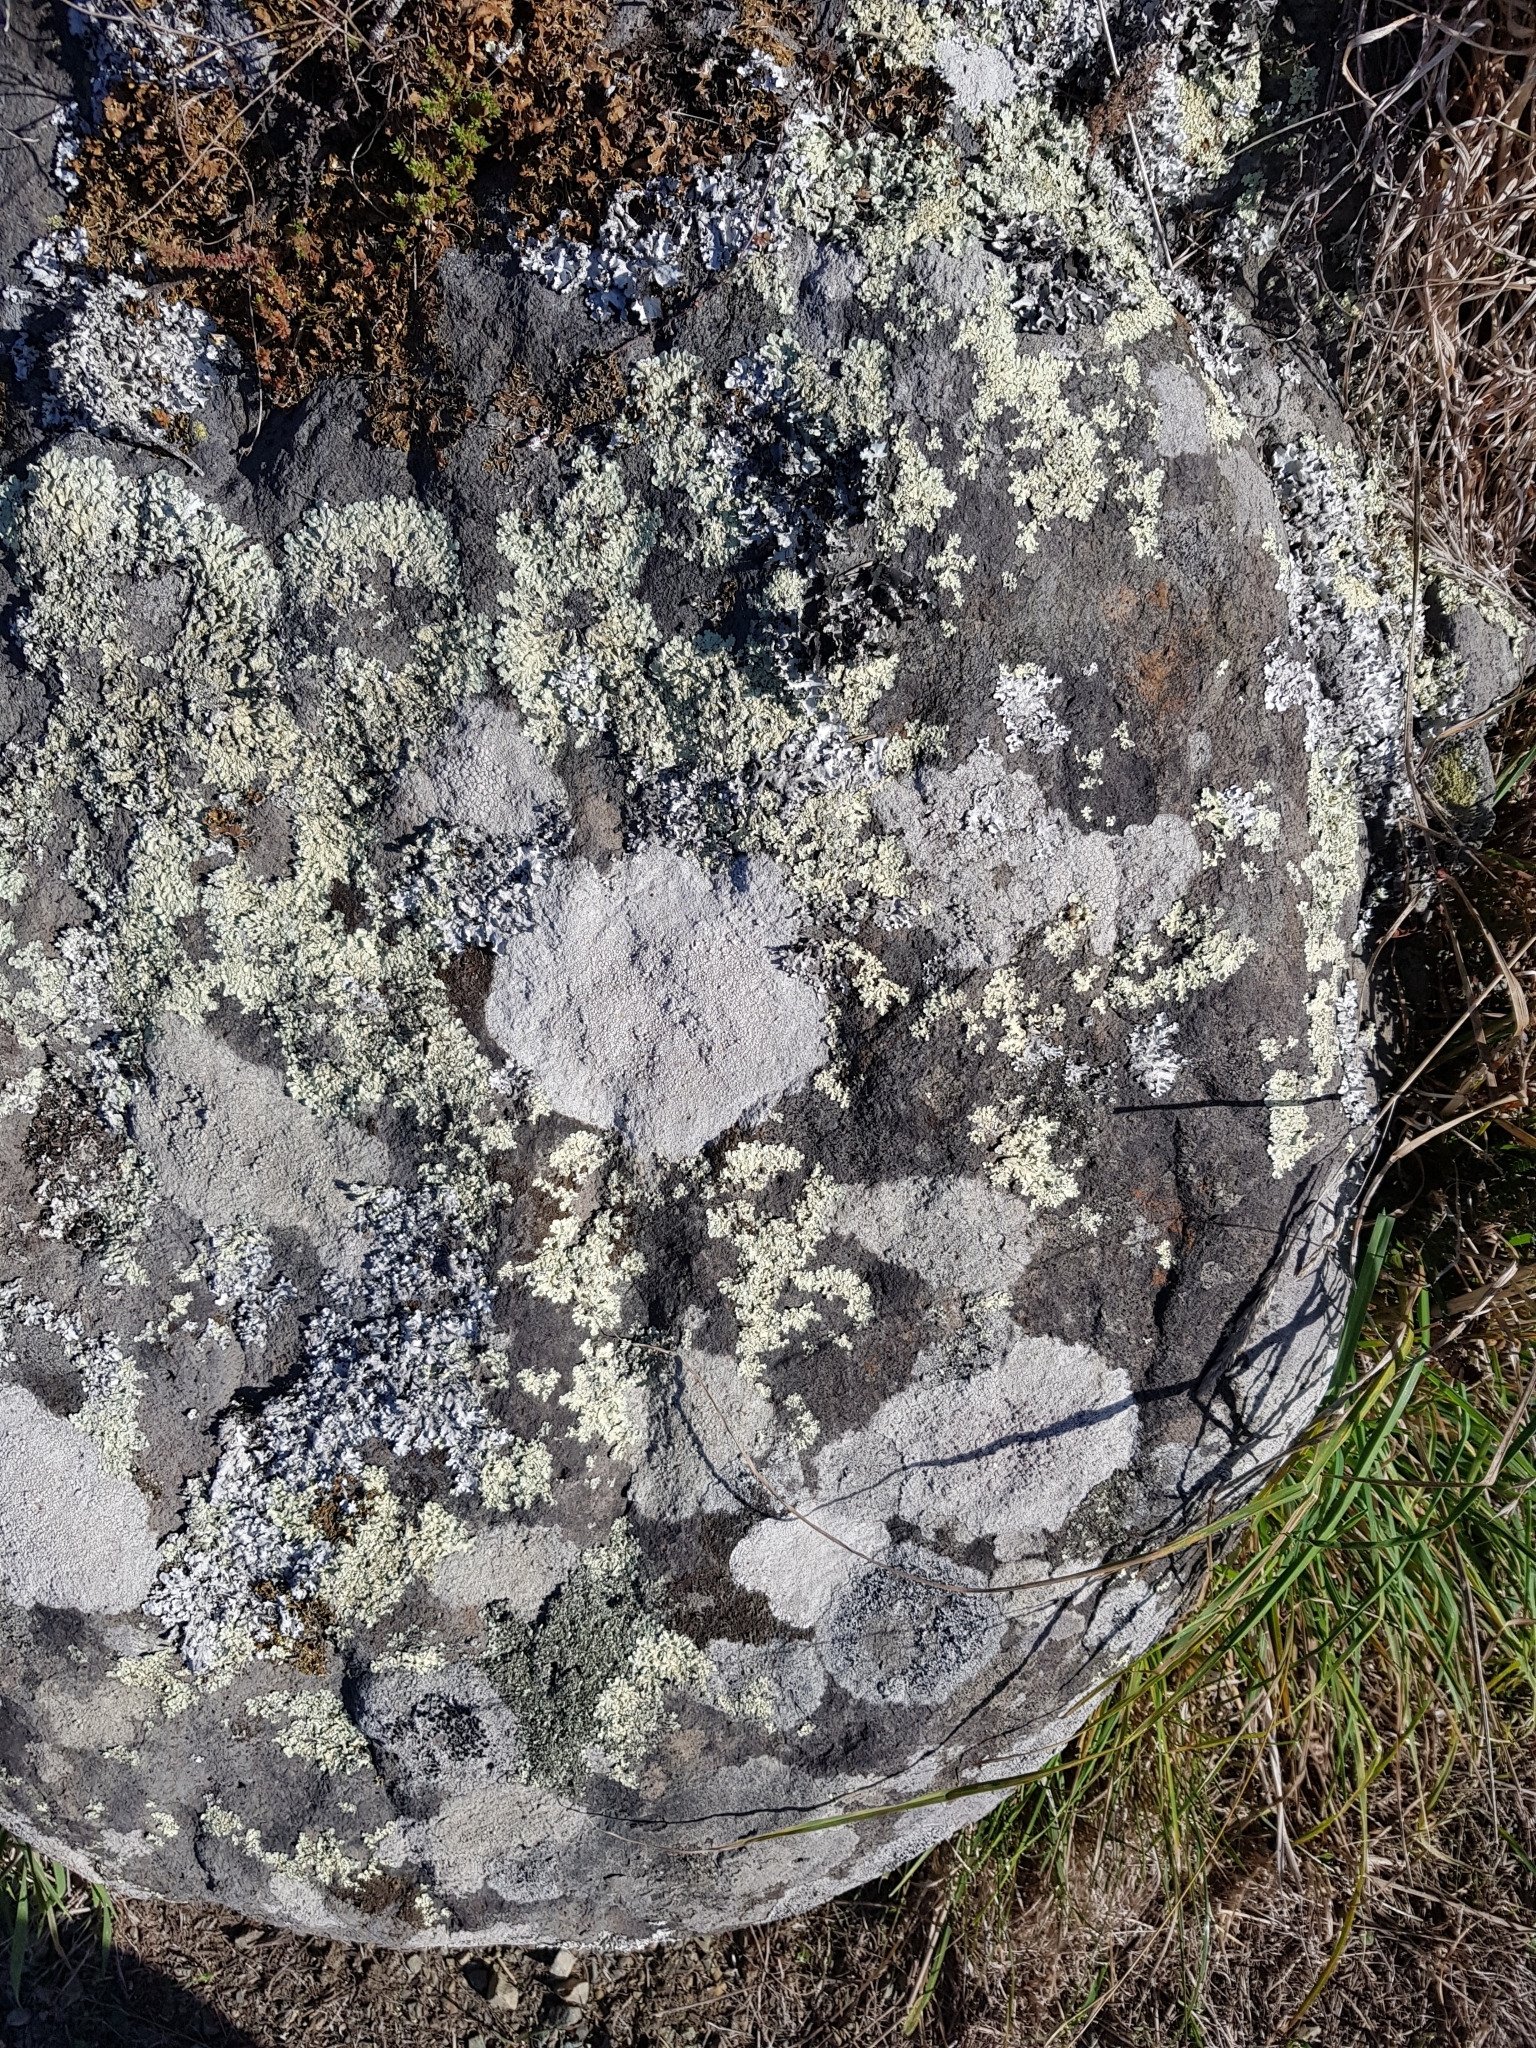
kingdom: Animalia
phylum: Arthropoda
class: Insecta
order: Orthoptera
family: Acrididae
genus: Phaulacridium
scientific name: Phaulacridium marginale
